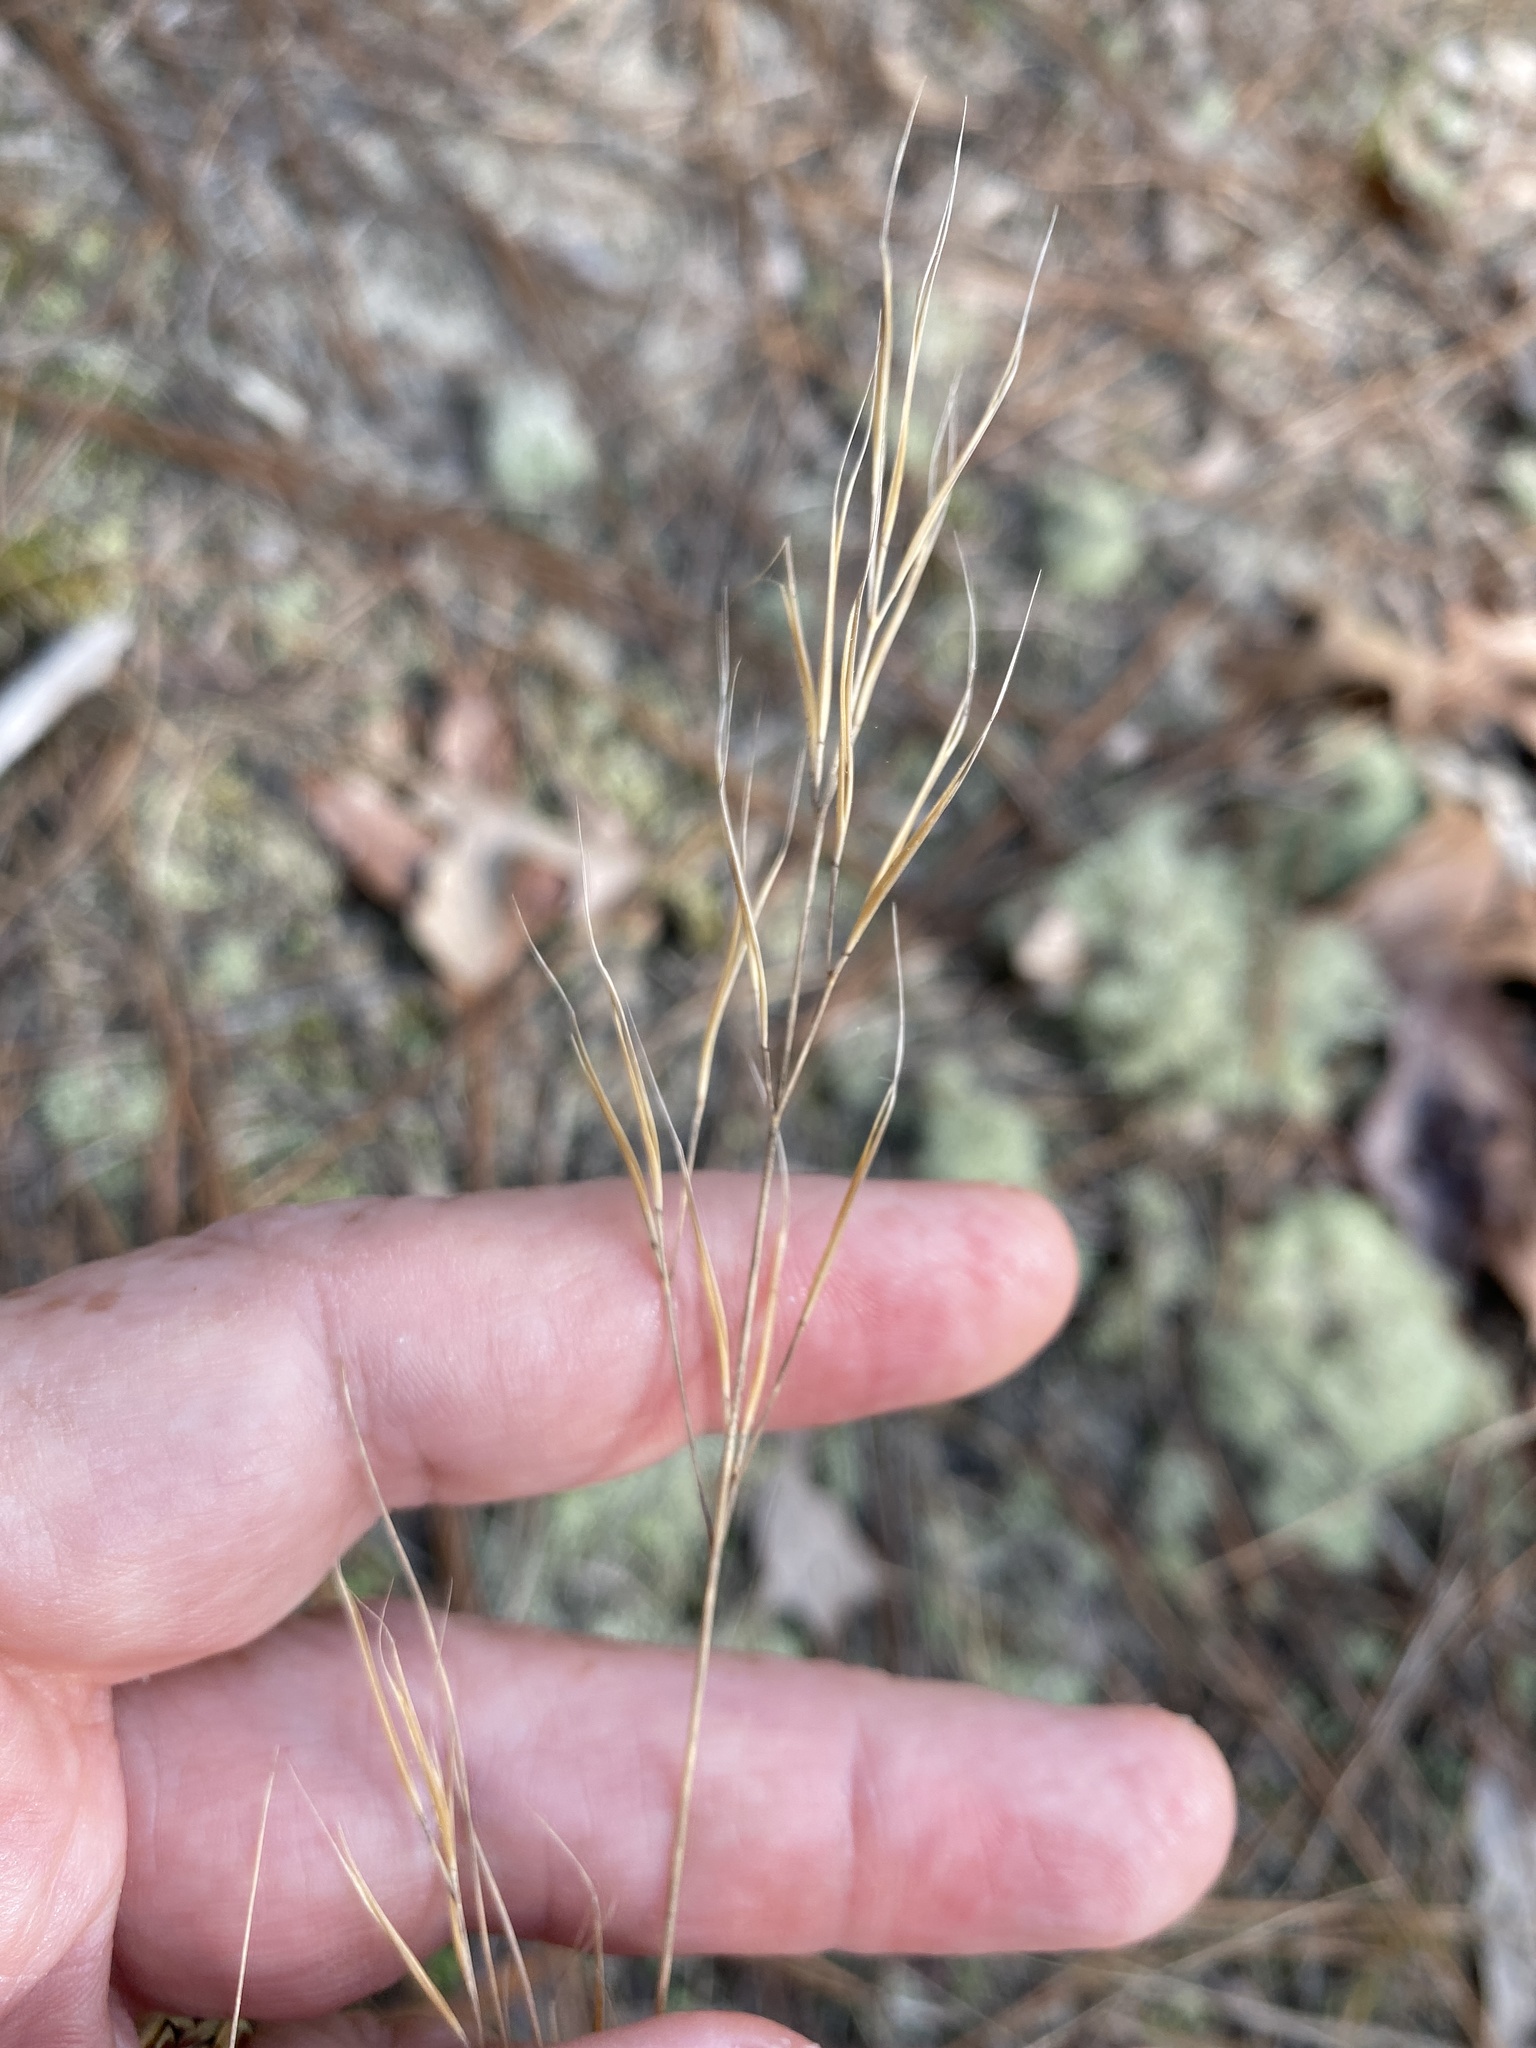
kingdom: Plantae
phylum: Tracheophyta
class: Liliopsida
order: Poales
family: Poaceae
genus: Aristida
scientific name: Aristida tuberculosa
